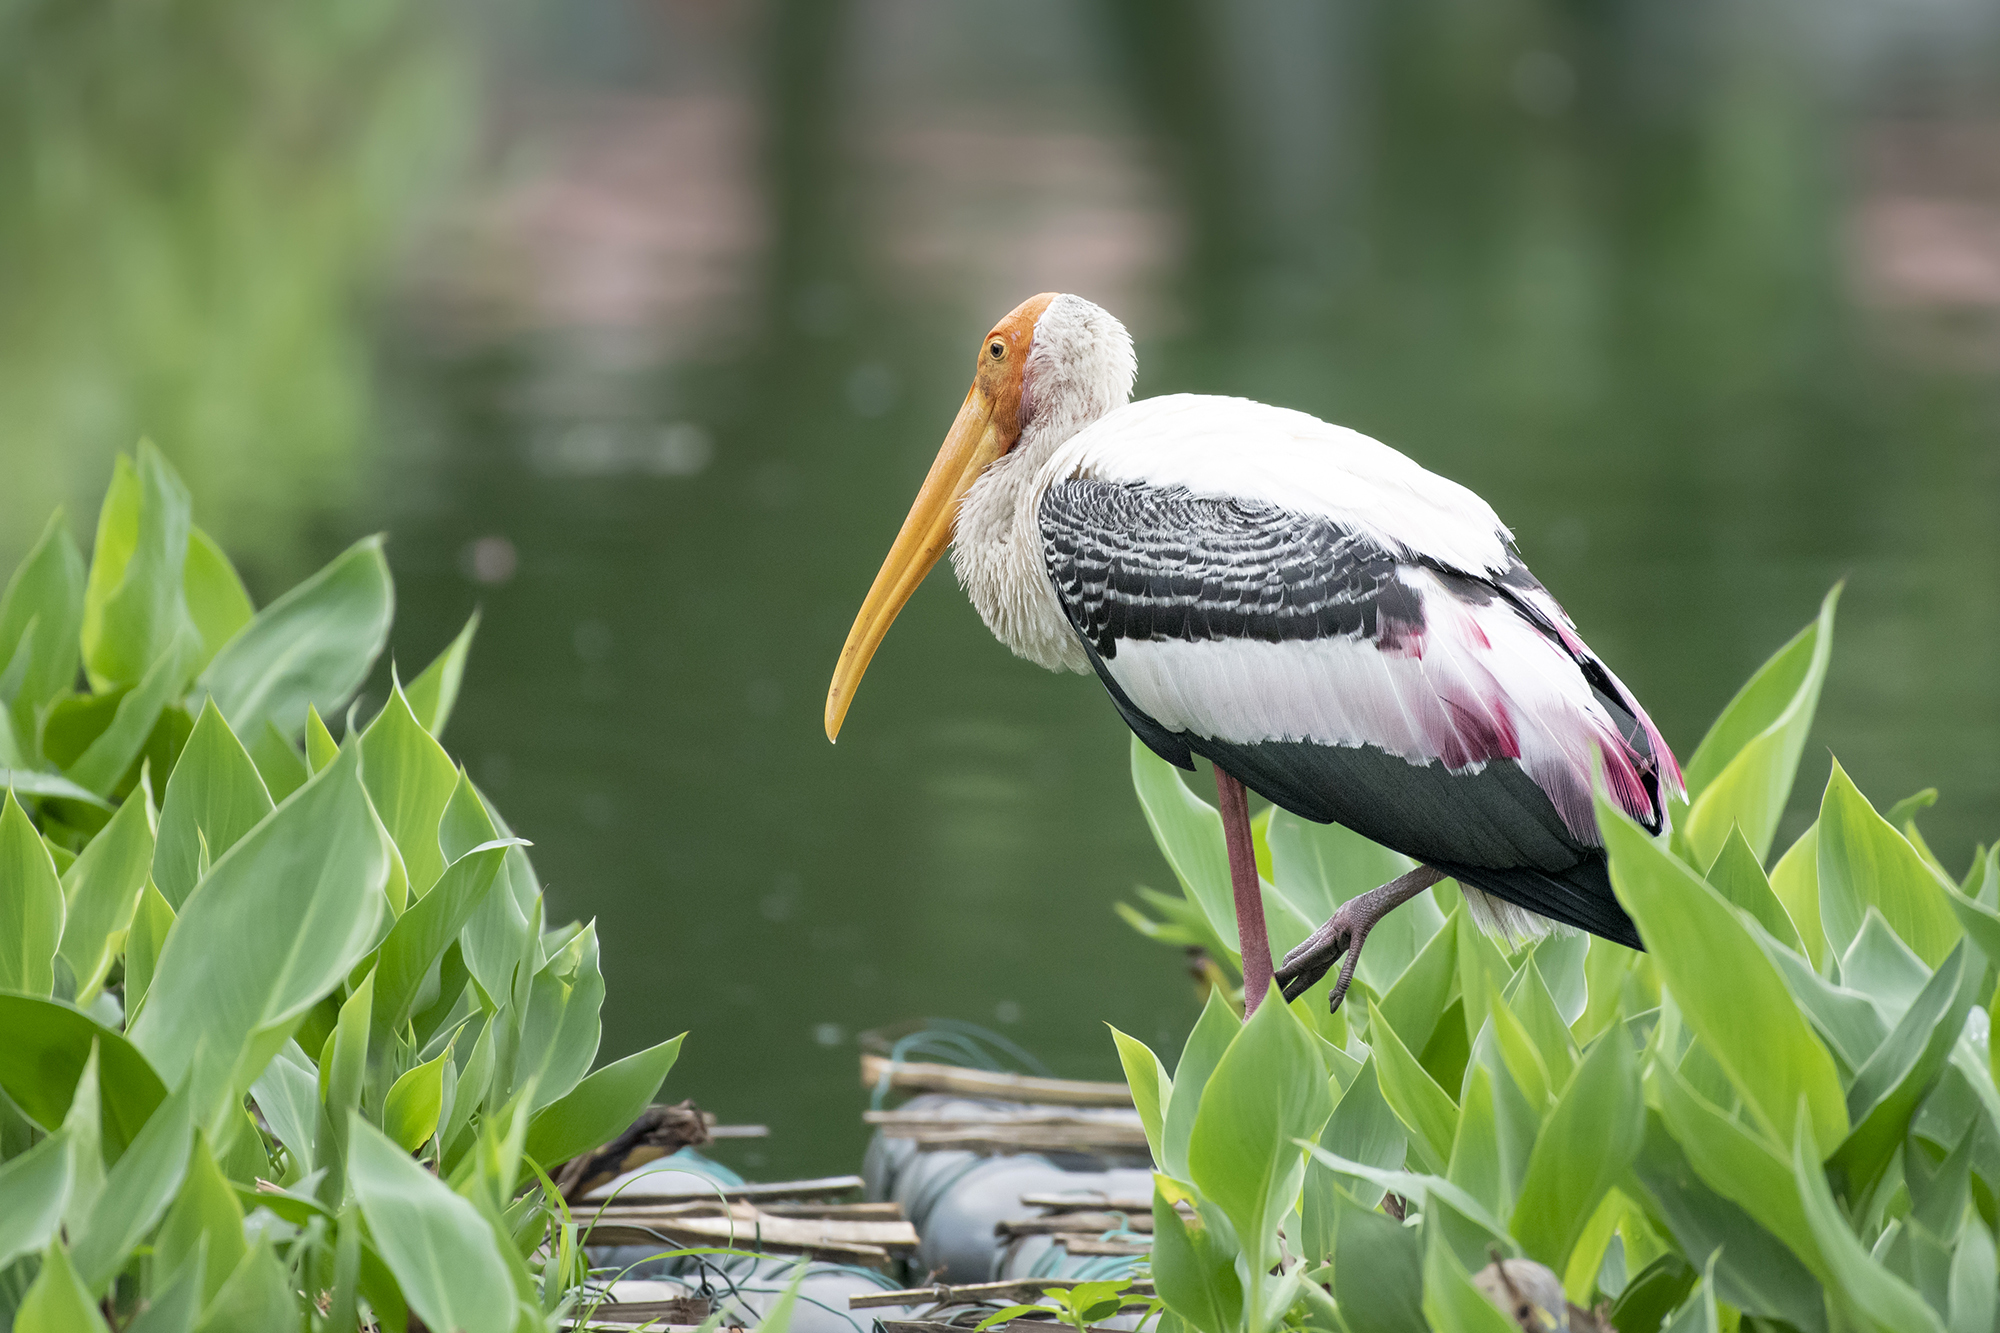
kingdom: Animalia
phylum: Chordata
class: Aves
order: Ciconiiformes
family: Ciconiidae
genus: Mycteria
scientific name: Mycteria leucocephala
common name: Painted stork
